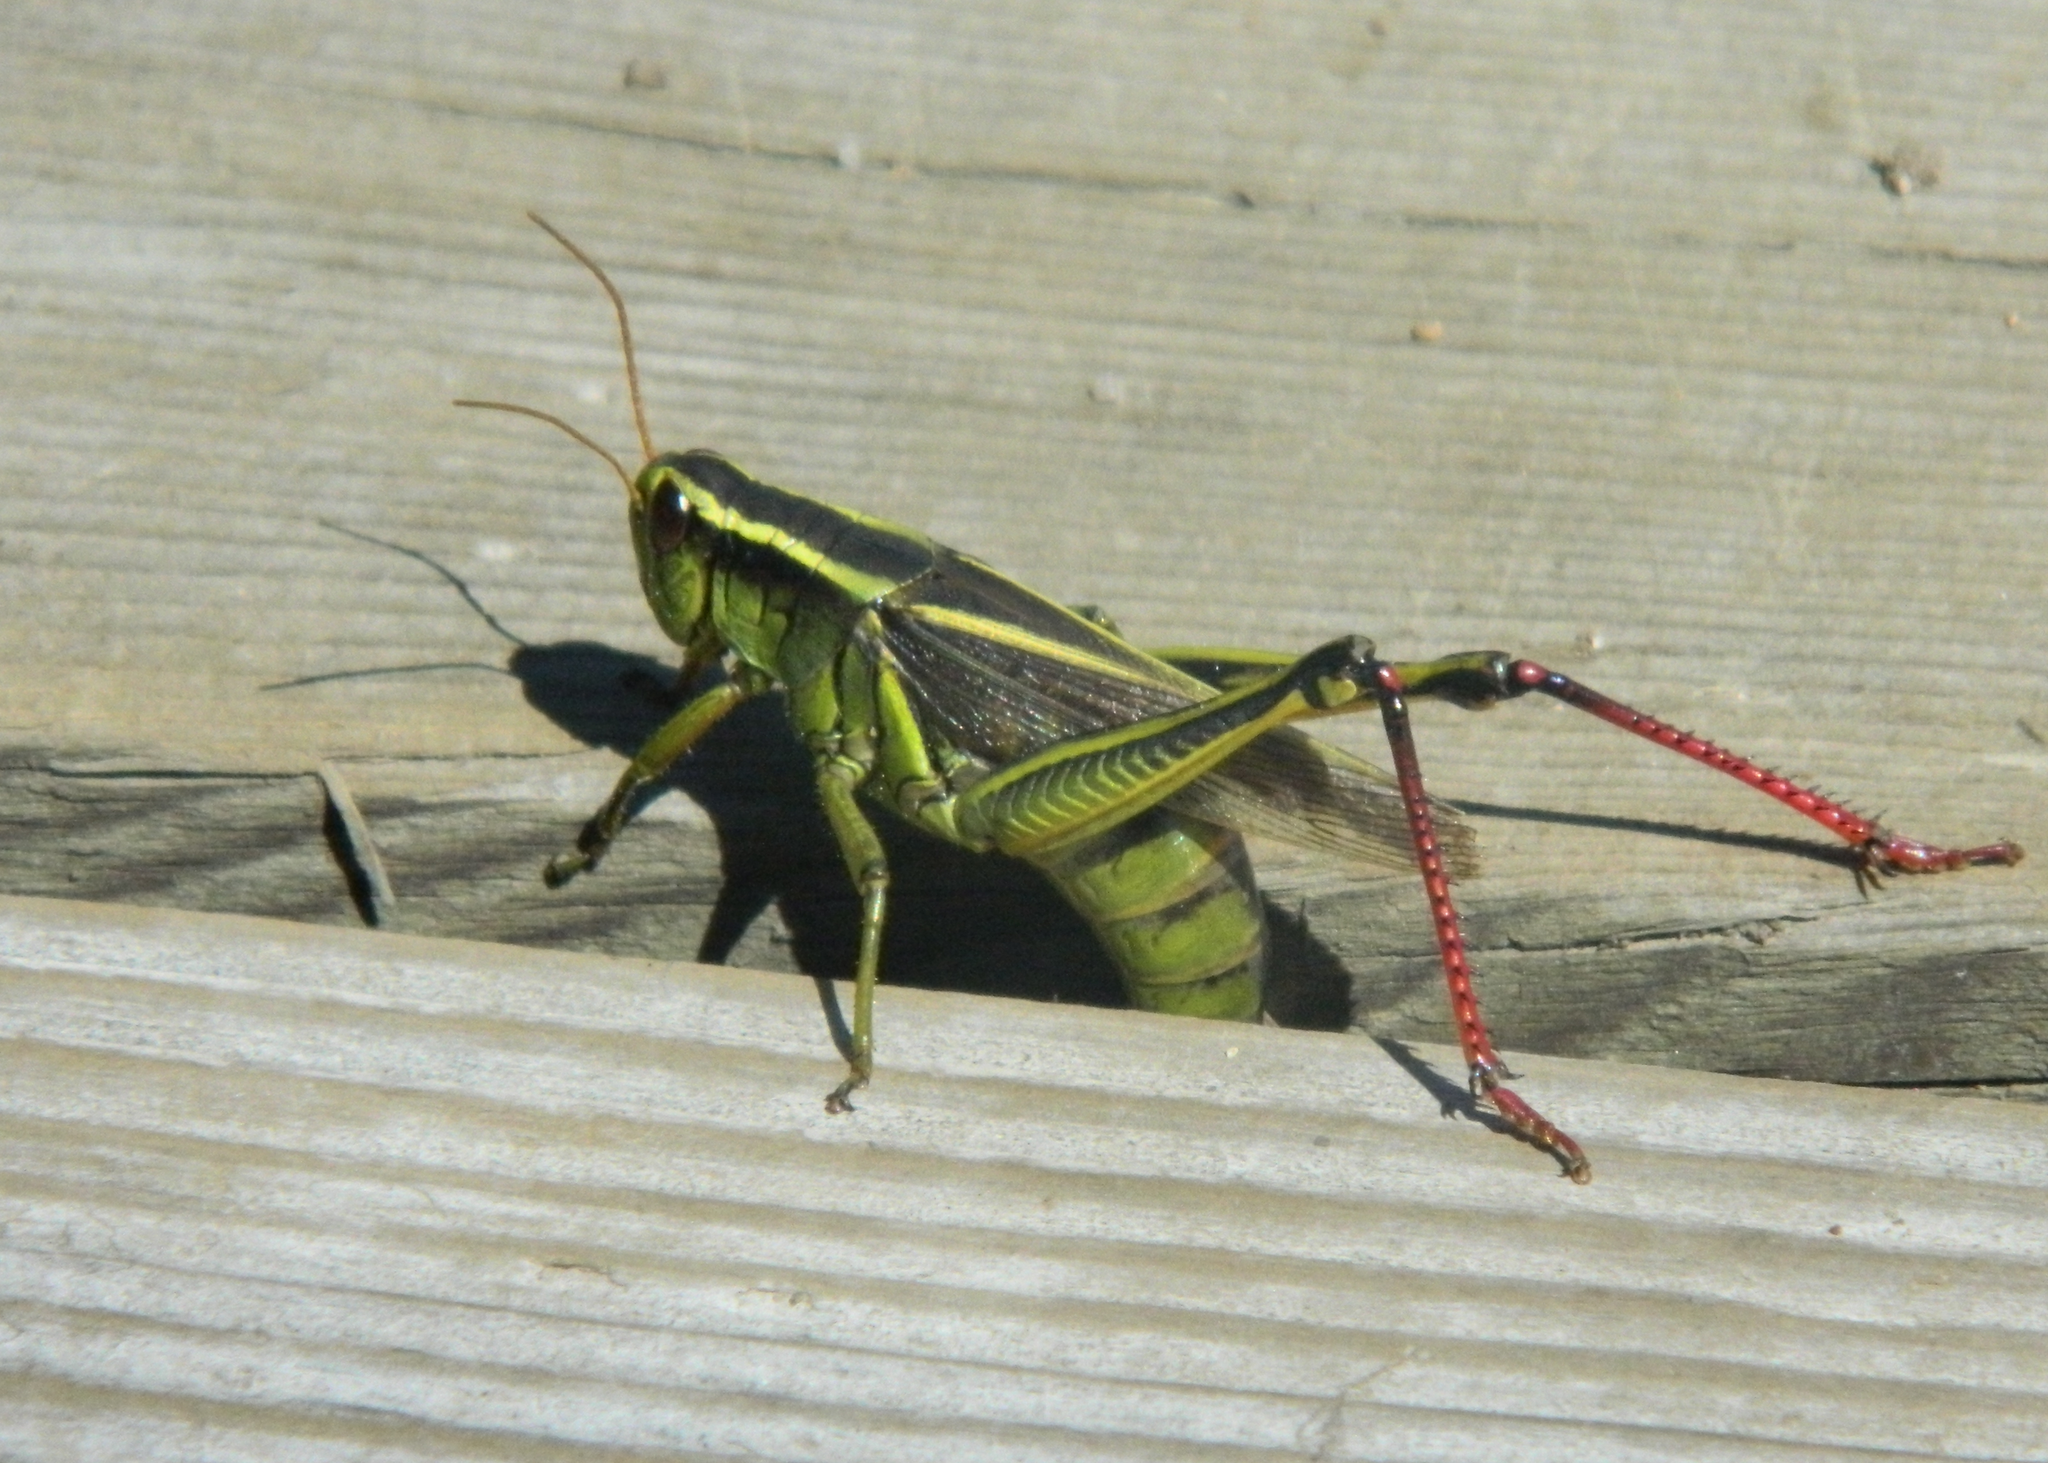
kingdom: Animalia
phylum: Arthropoda
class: Insecta
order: Orthoptera
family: Acrididae
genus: Melanoplus
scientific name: Melanoplus bivittatus
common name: Two-striped grasshopper
